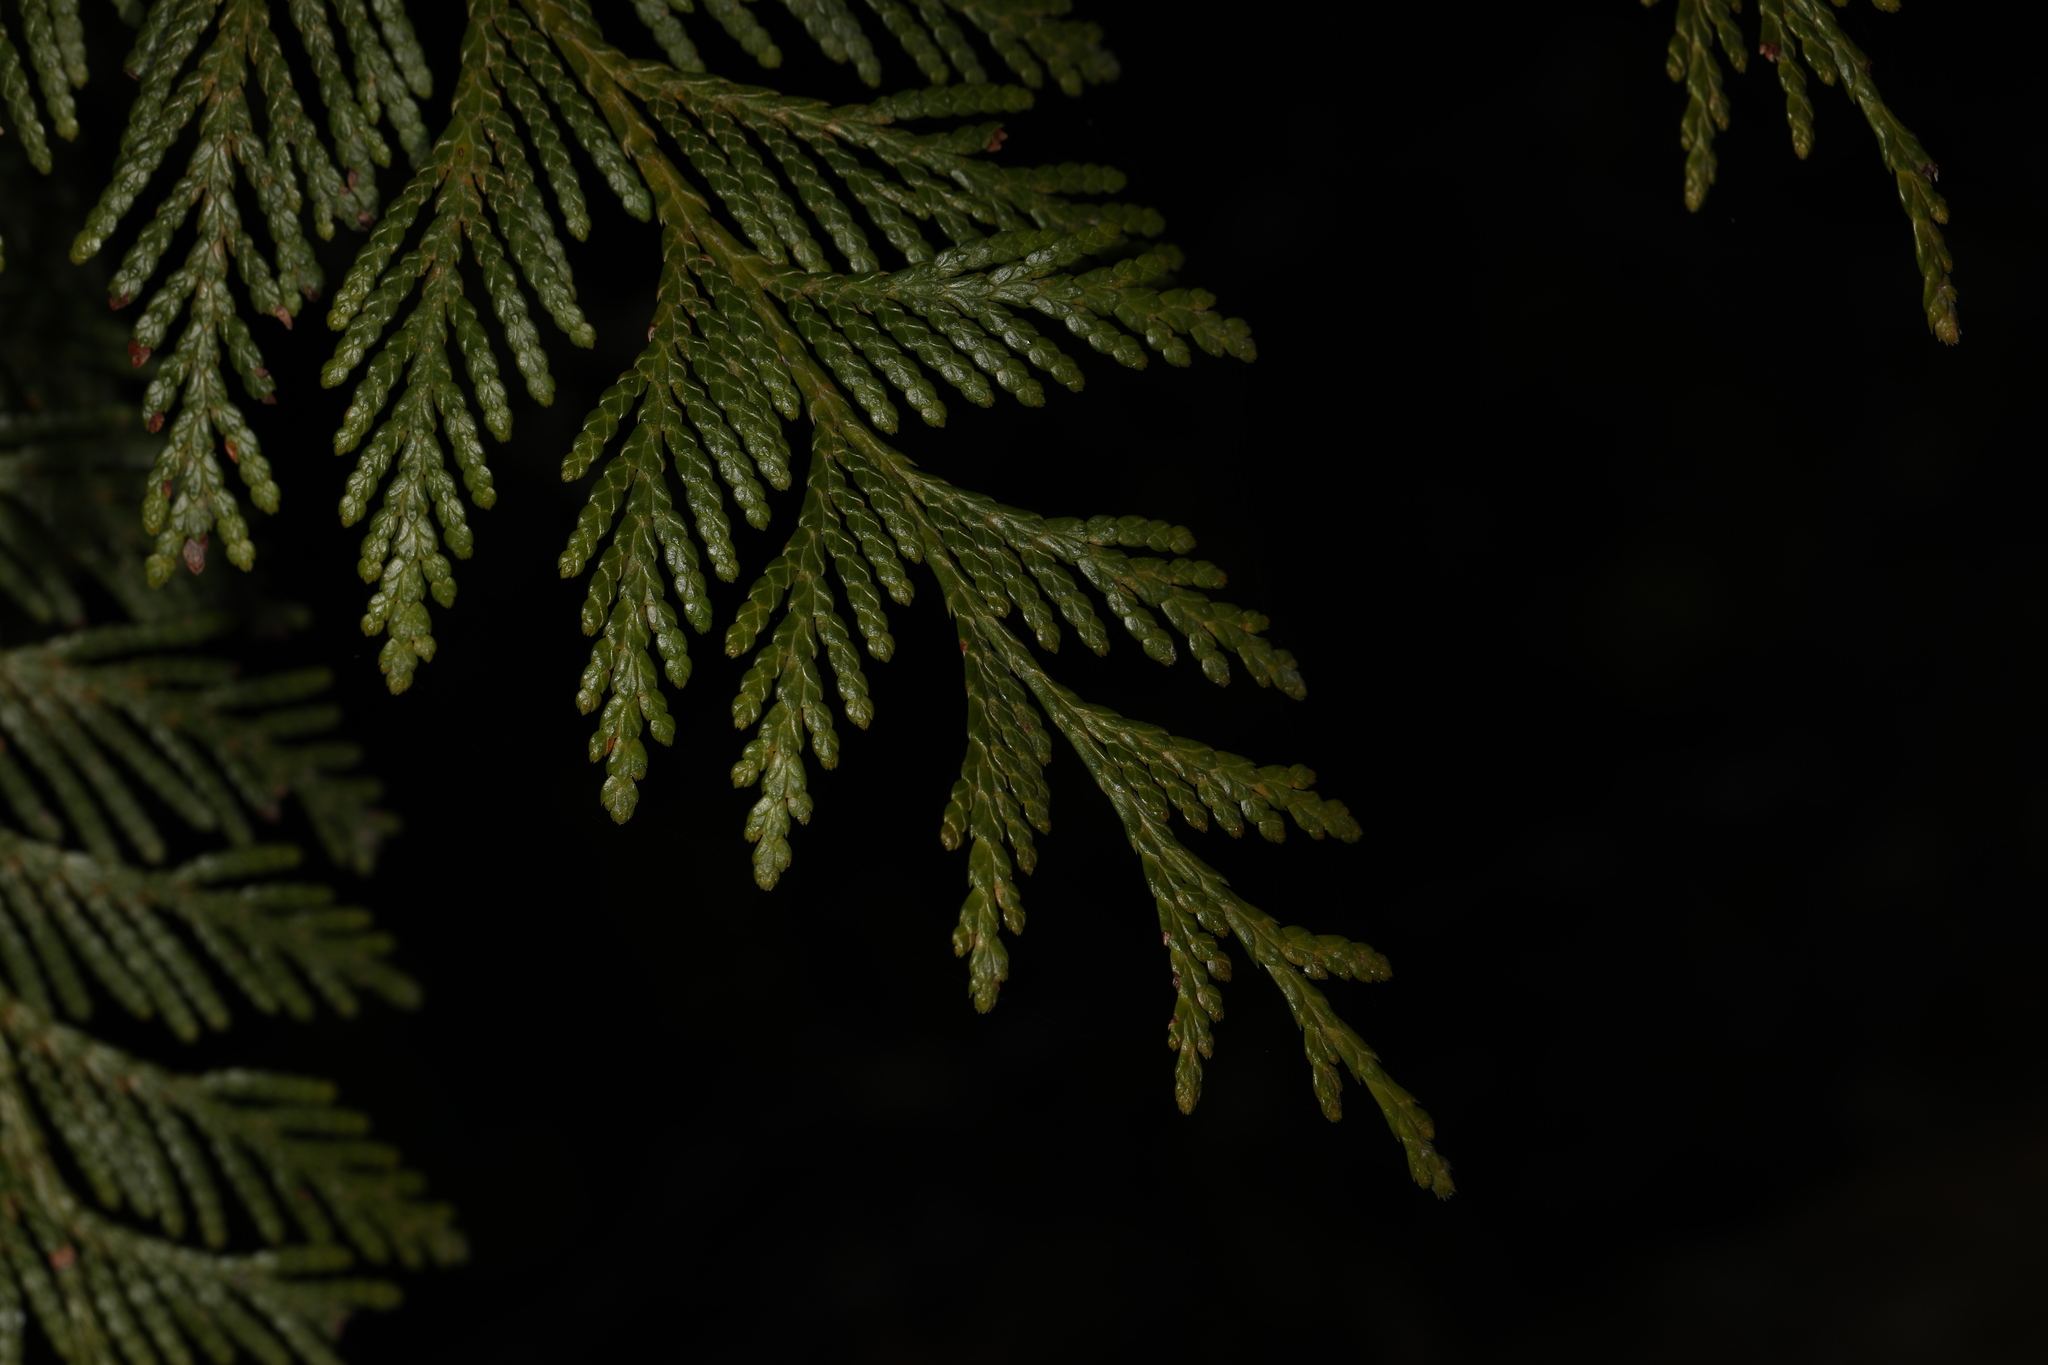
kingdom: Plantae
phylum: Tracheophyta
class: Pinopsida
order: Pinales
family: Cupressaceae
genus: Thuja
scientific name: Thuja plicata
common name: Western red-cedar
